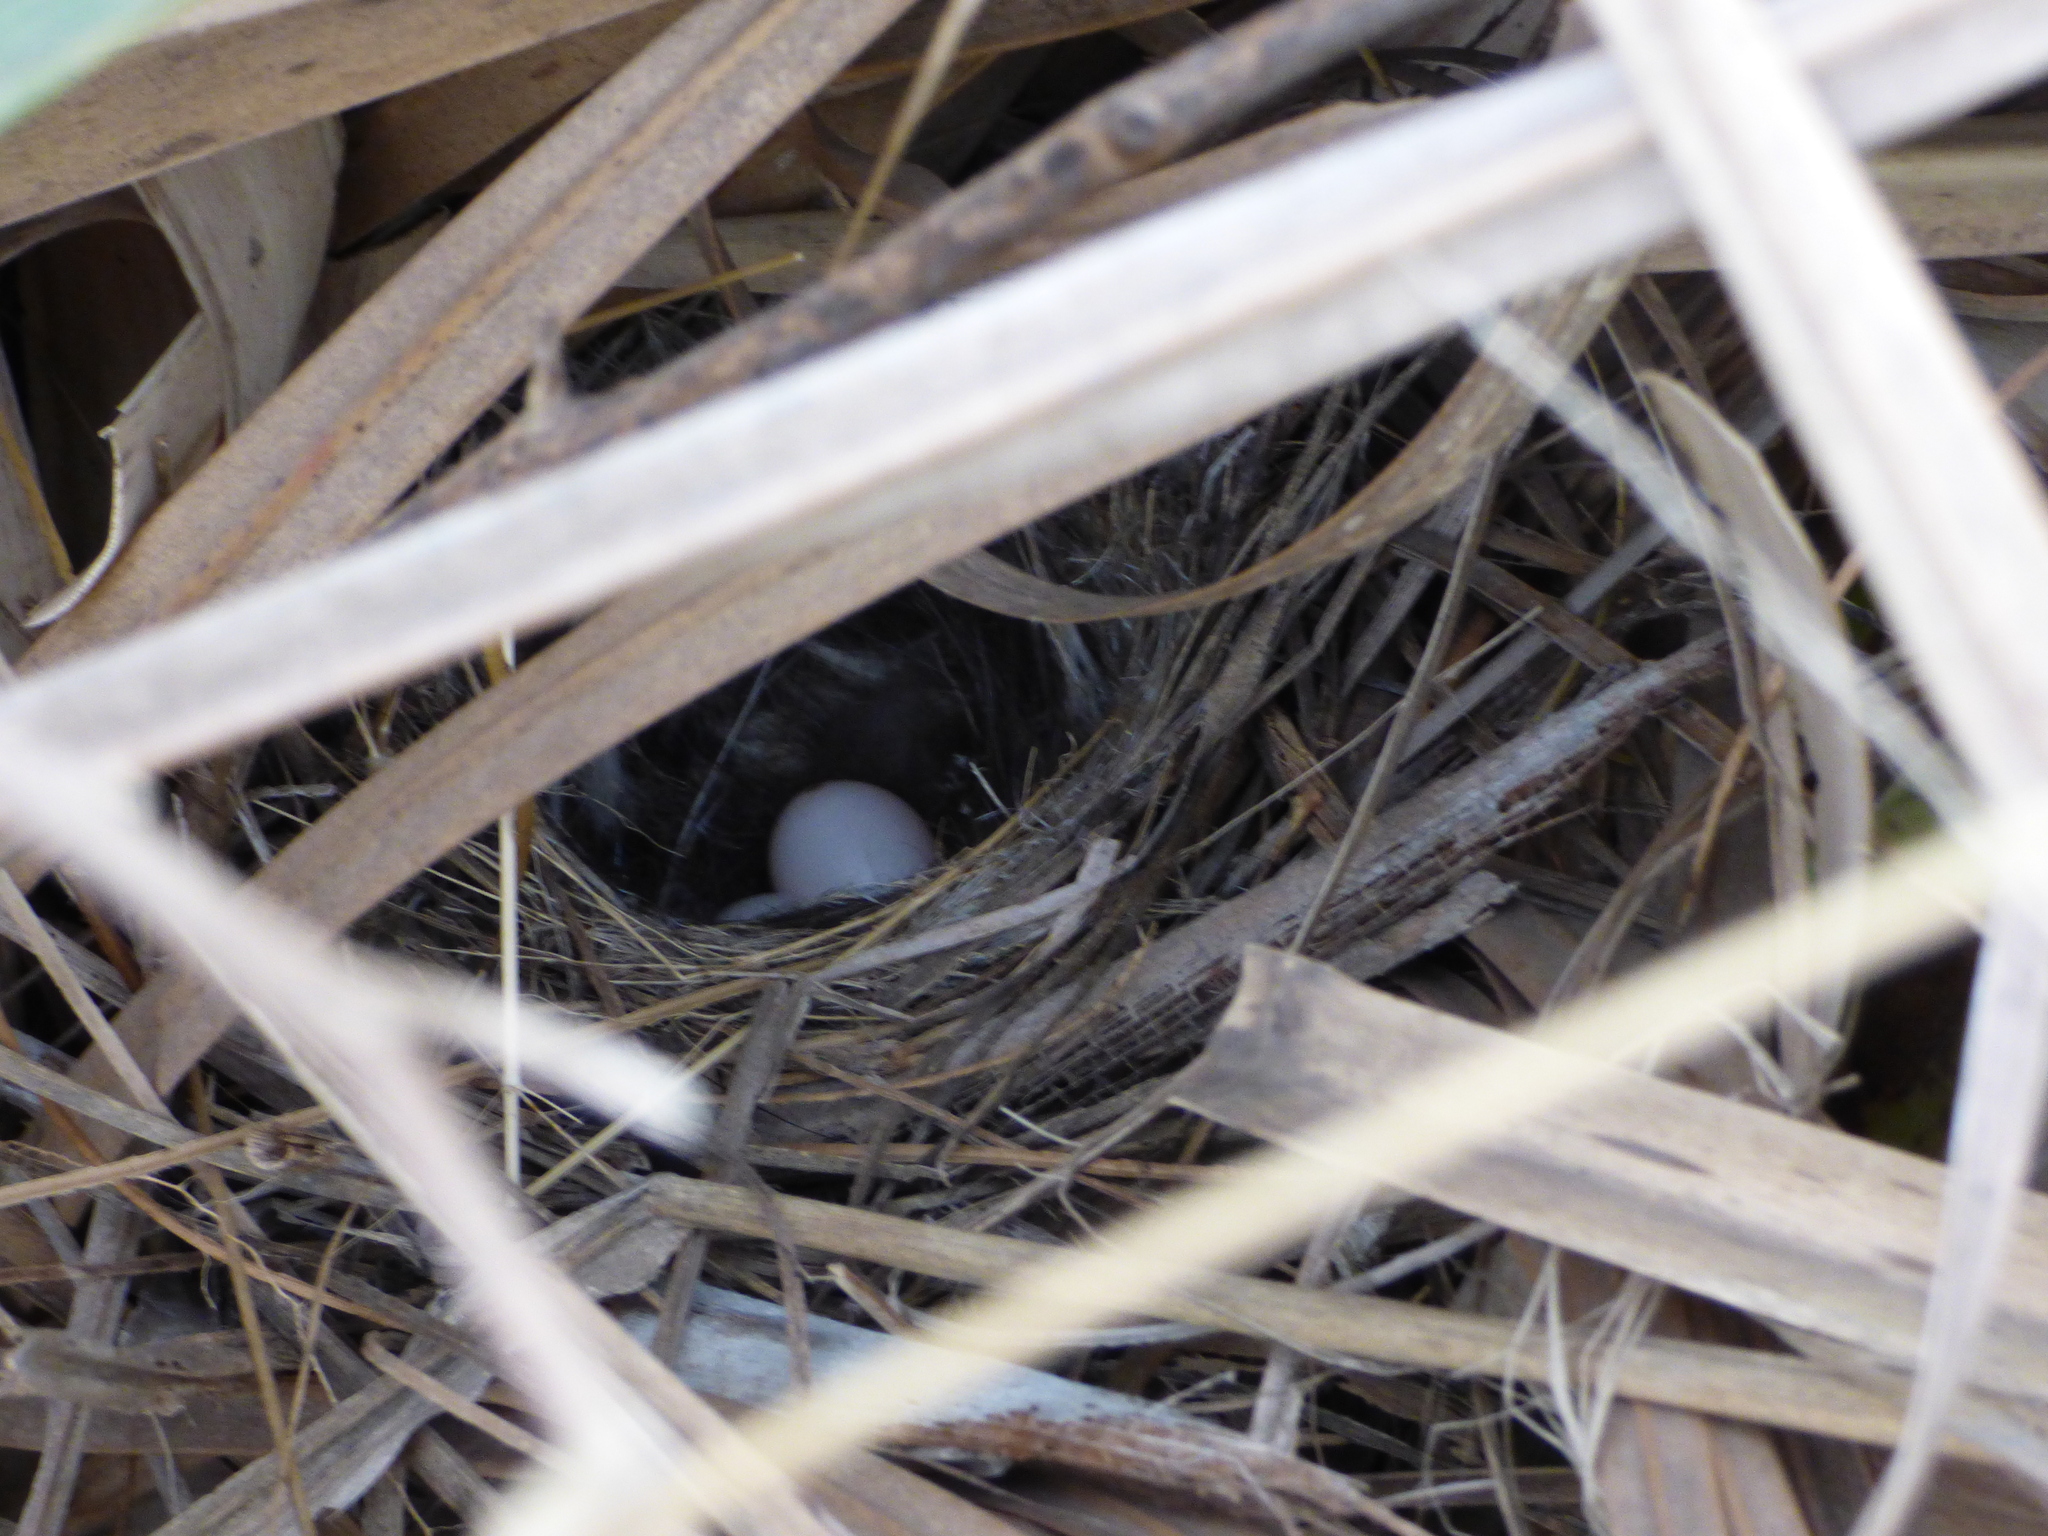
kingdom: Animalia
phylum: Chordata
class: Aves
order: Passeriformes
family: Tyrannidae
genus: Hymenops
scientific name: Hymenops perspicillatus
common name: Spectacled tyrant
